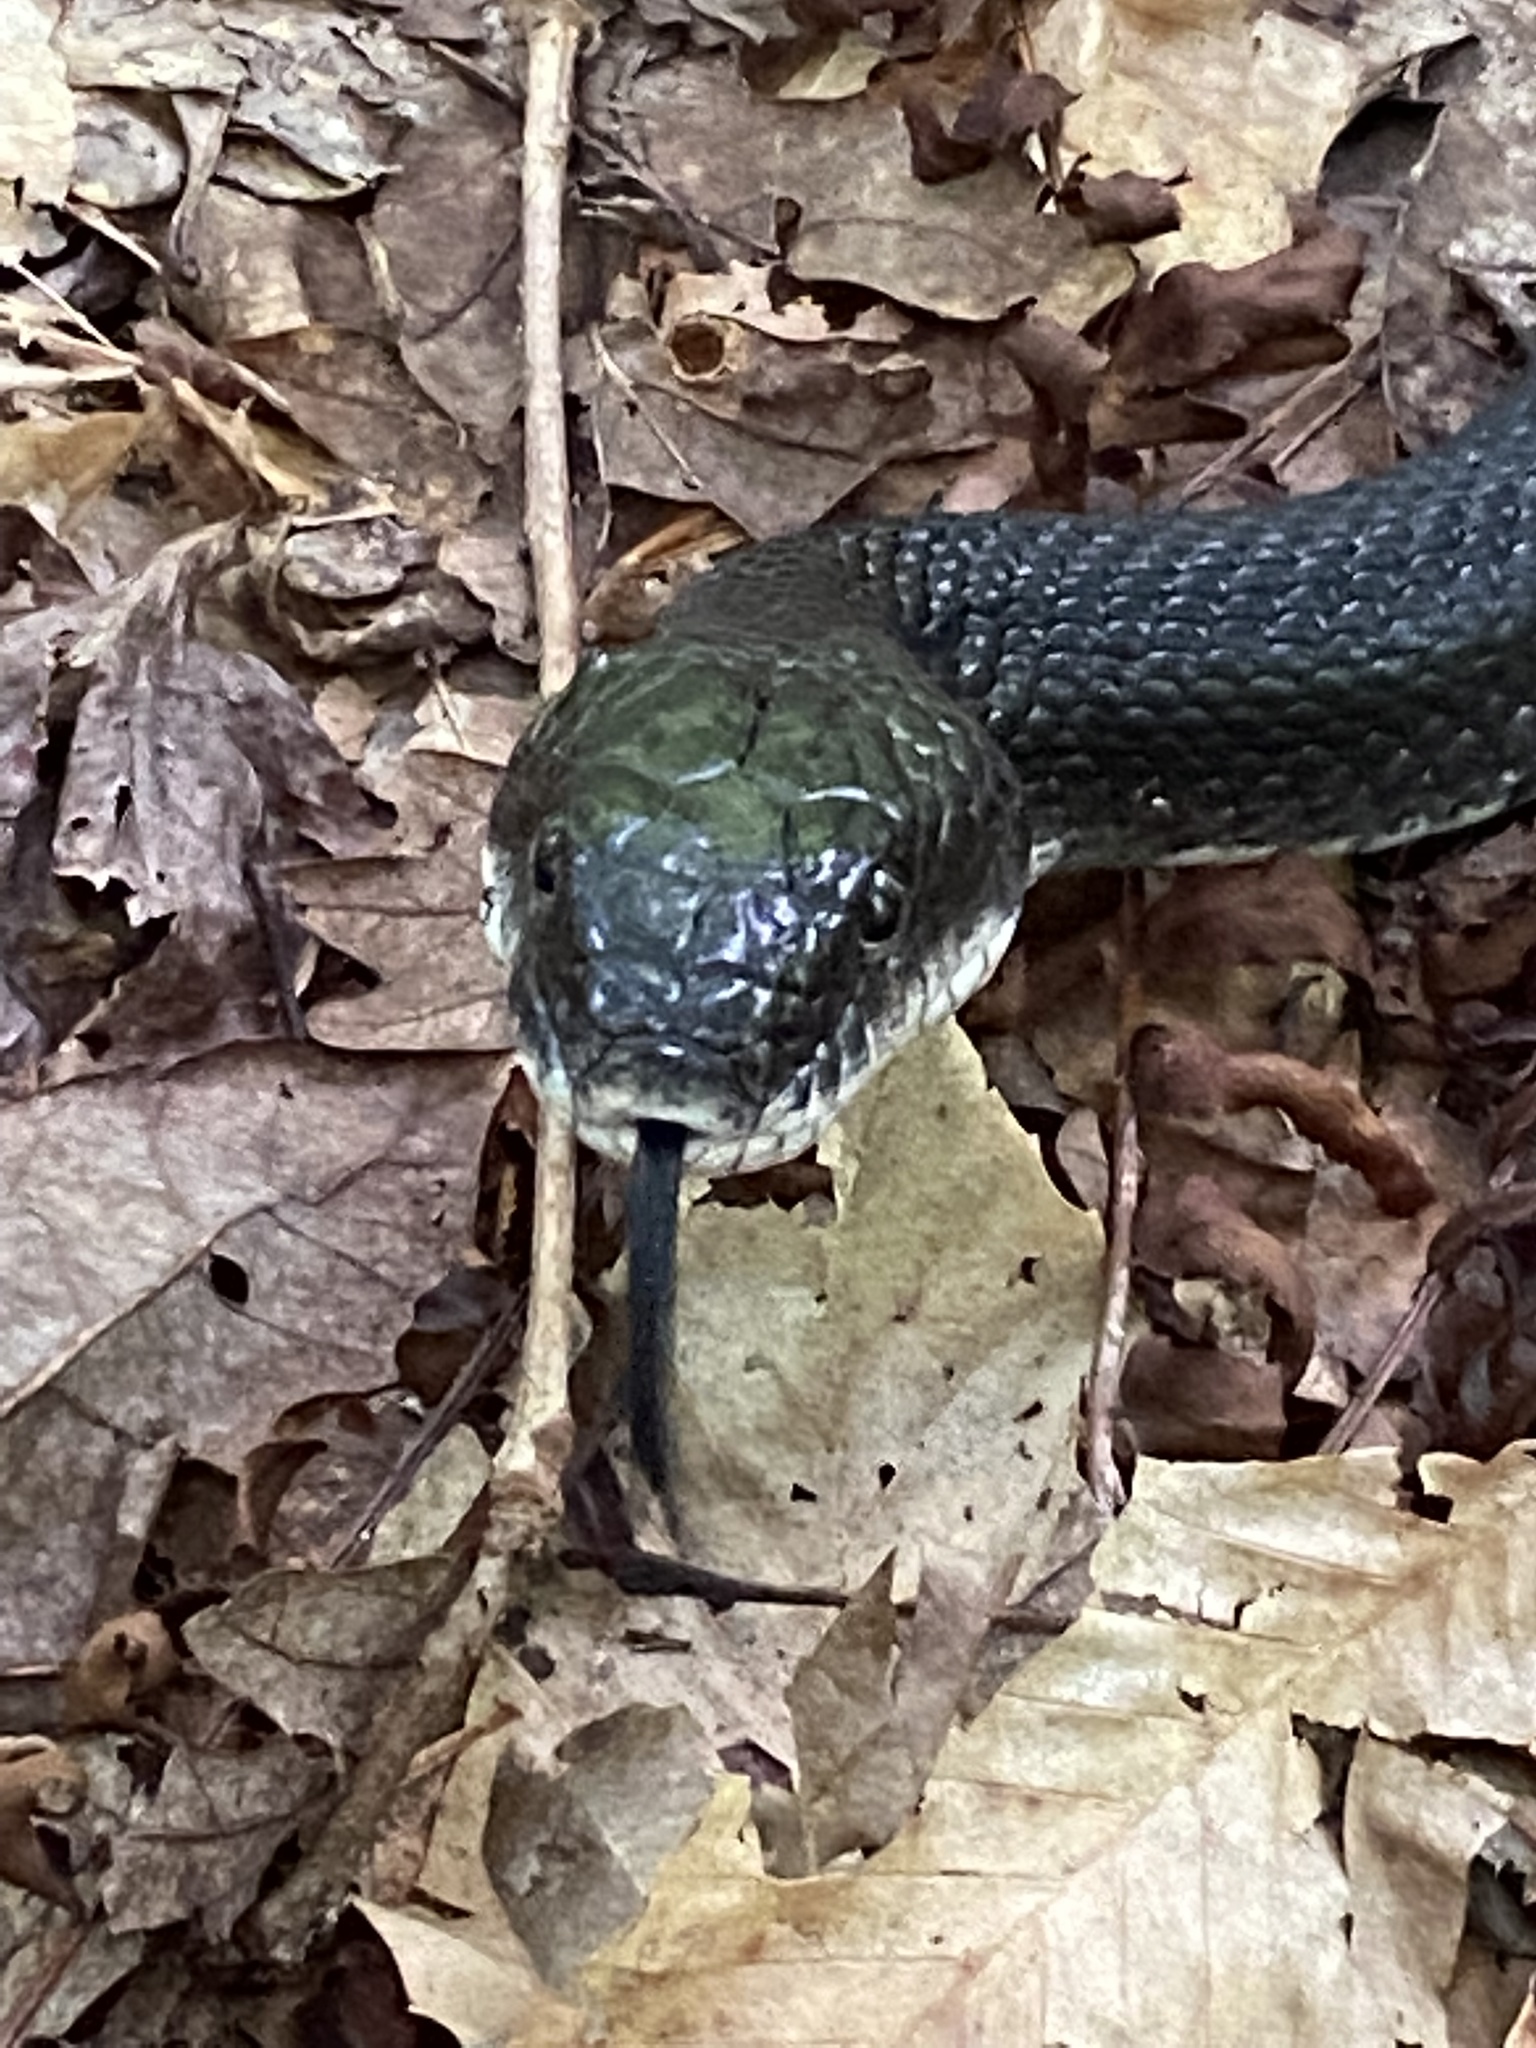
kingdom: Animalia
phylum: Chordata
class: Squamata
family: Colubridae
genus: Pantherophis
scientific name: Pantherophis alleghaniensis
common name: Eastern rat snake
